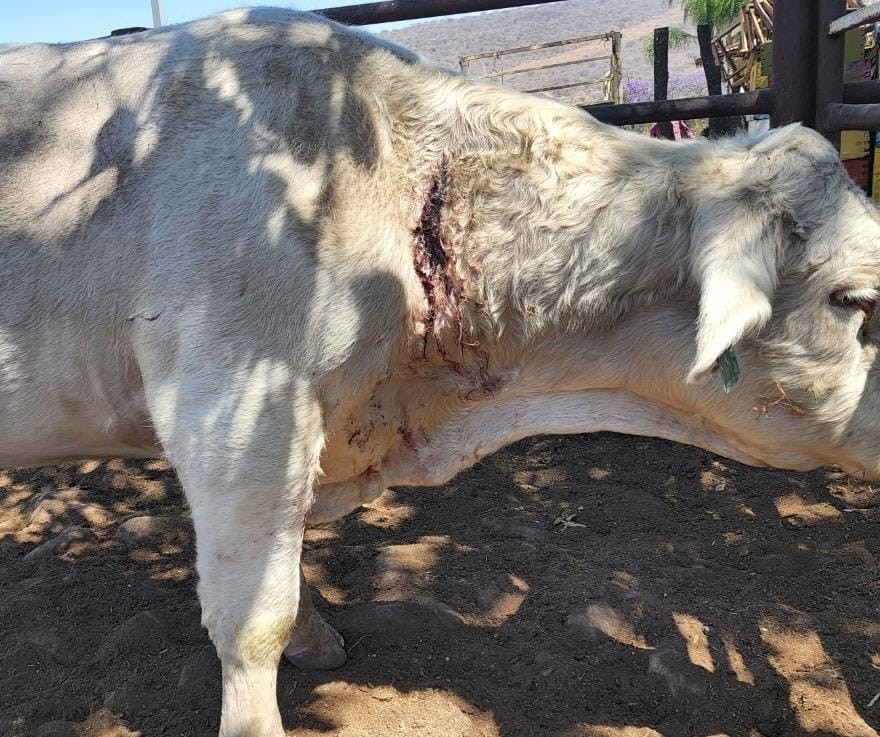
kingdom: Animalia
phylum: Chordata
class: Mammalia
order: Chiroptera
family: Phyllostomidae
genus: Desmodus
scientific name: Desmodus rotundus
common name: Common vampire bat
